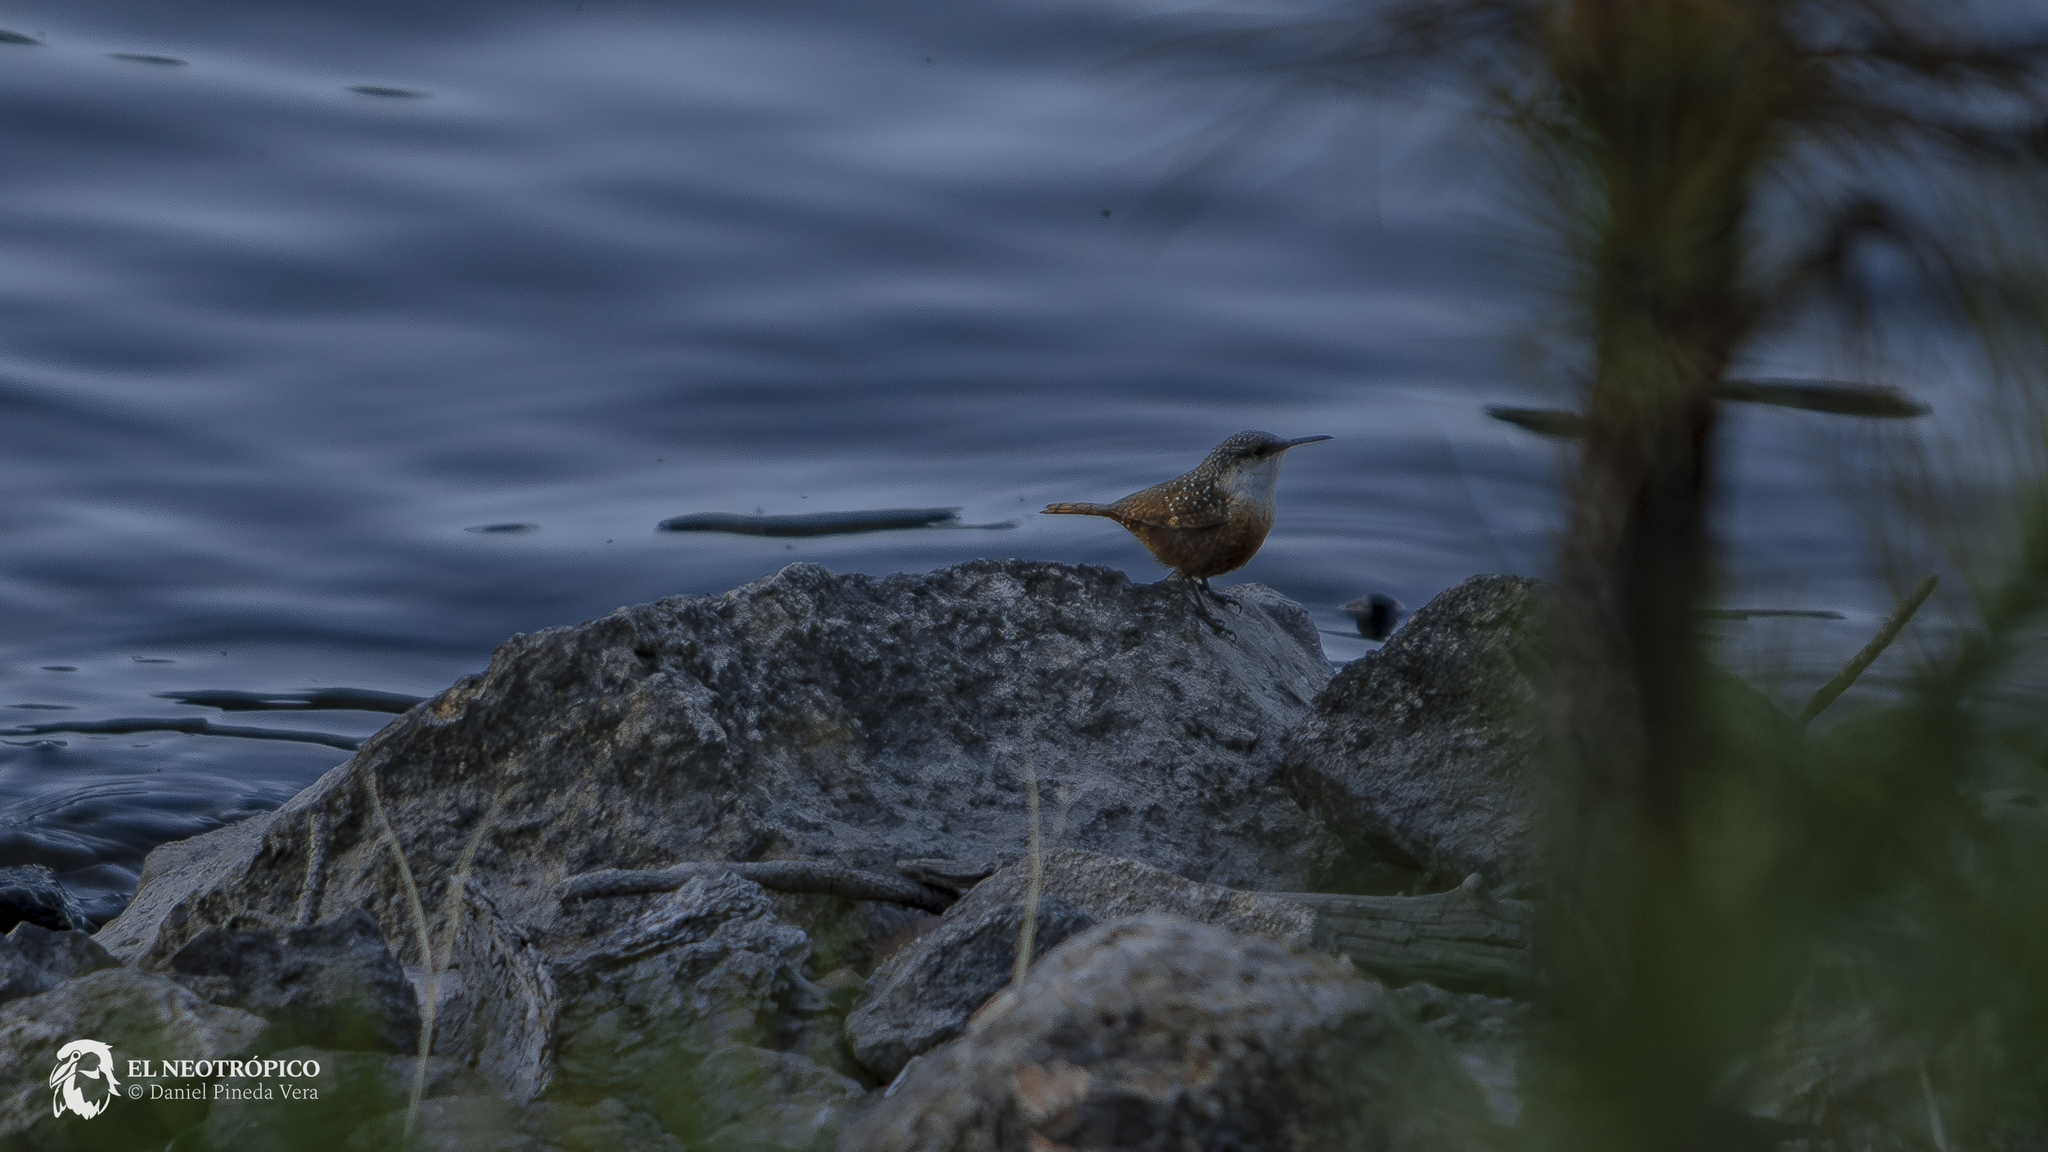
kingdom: Animalia
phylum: Chordata
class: Aves
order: Passeriformes
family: Troglodytidae
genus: Catherpes
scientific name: Catherpes mexicanus
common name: Canyon wren
